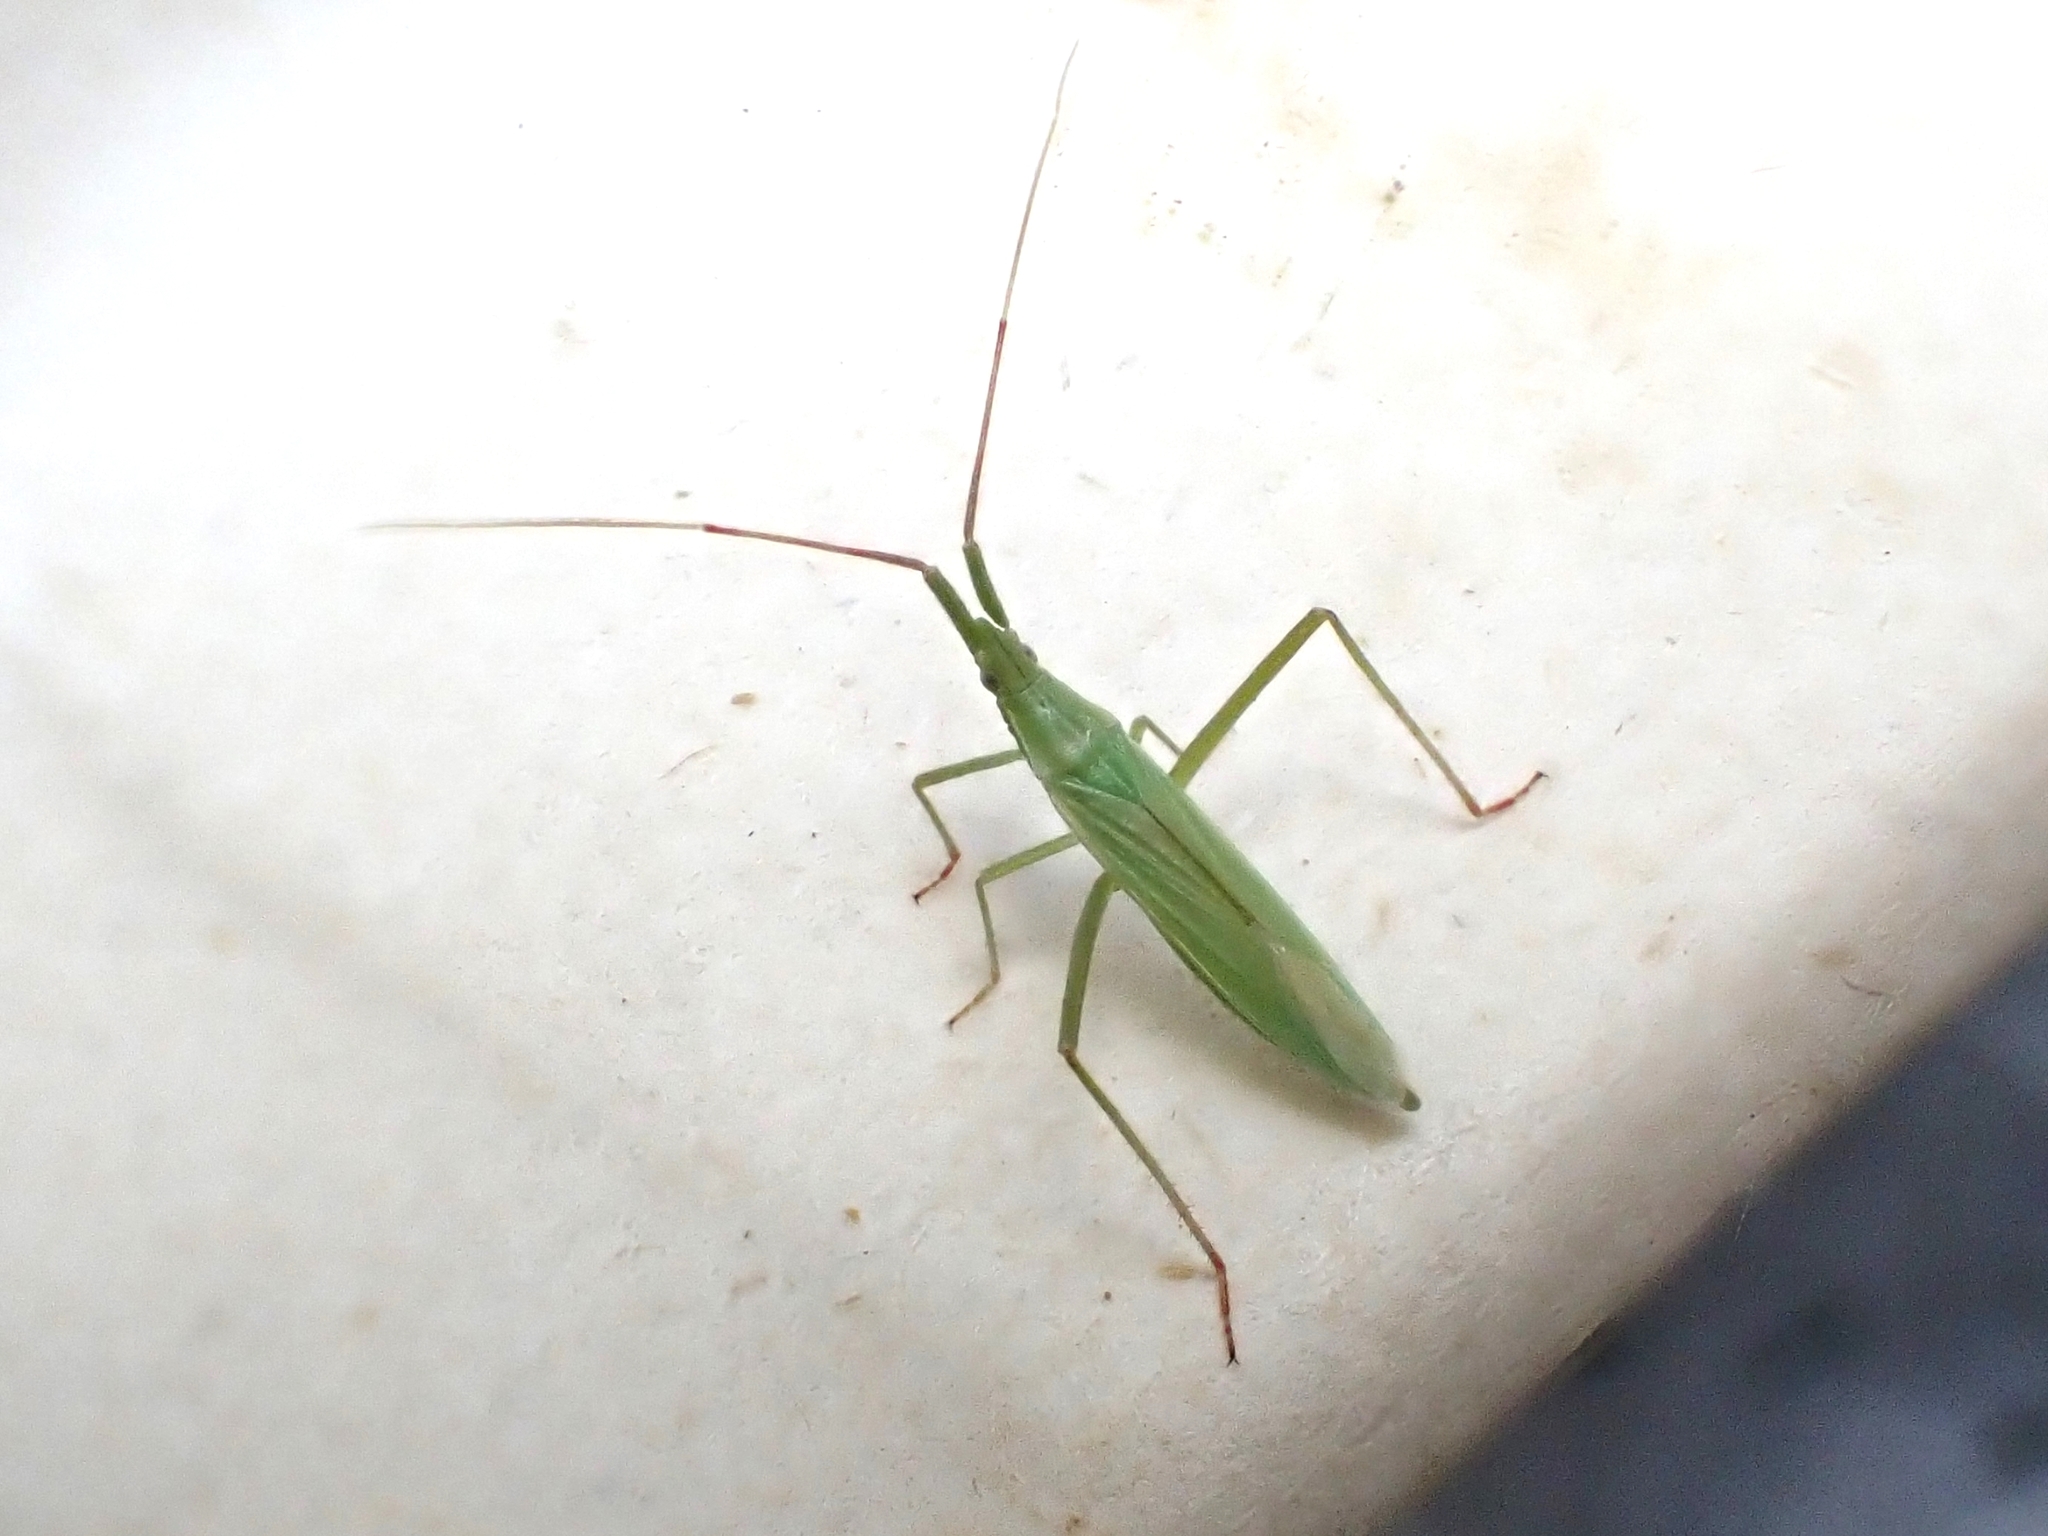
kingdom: Animalia
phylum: Arthropoda
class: Insecta
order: Hemiptera
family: Miridae
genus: Megaloceroea
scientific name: Megaloceroea recticornis
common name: Plant bug
